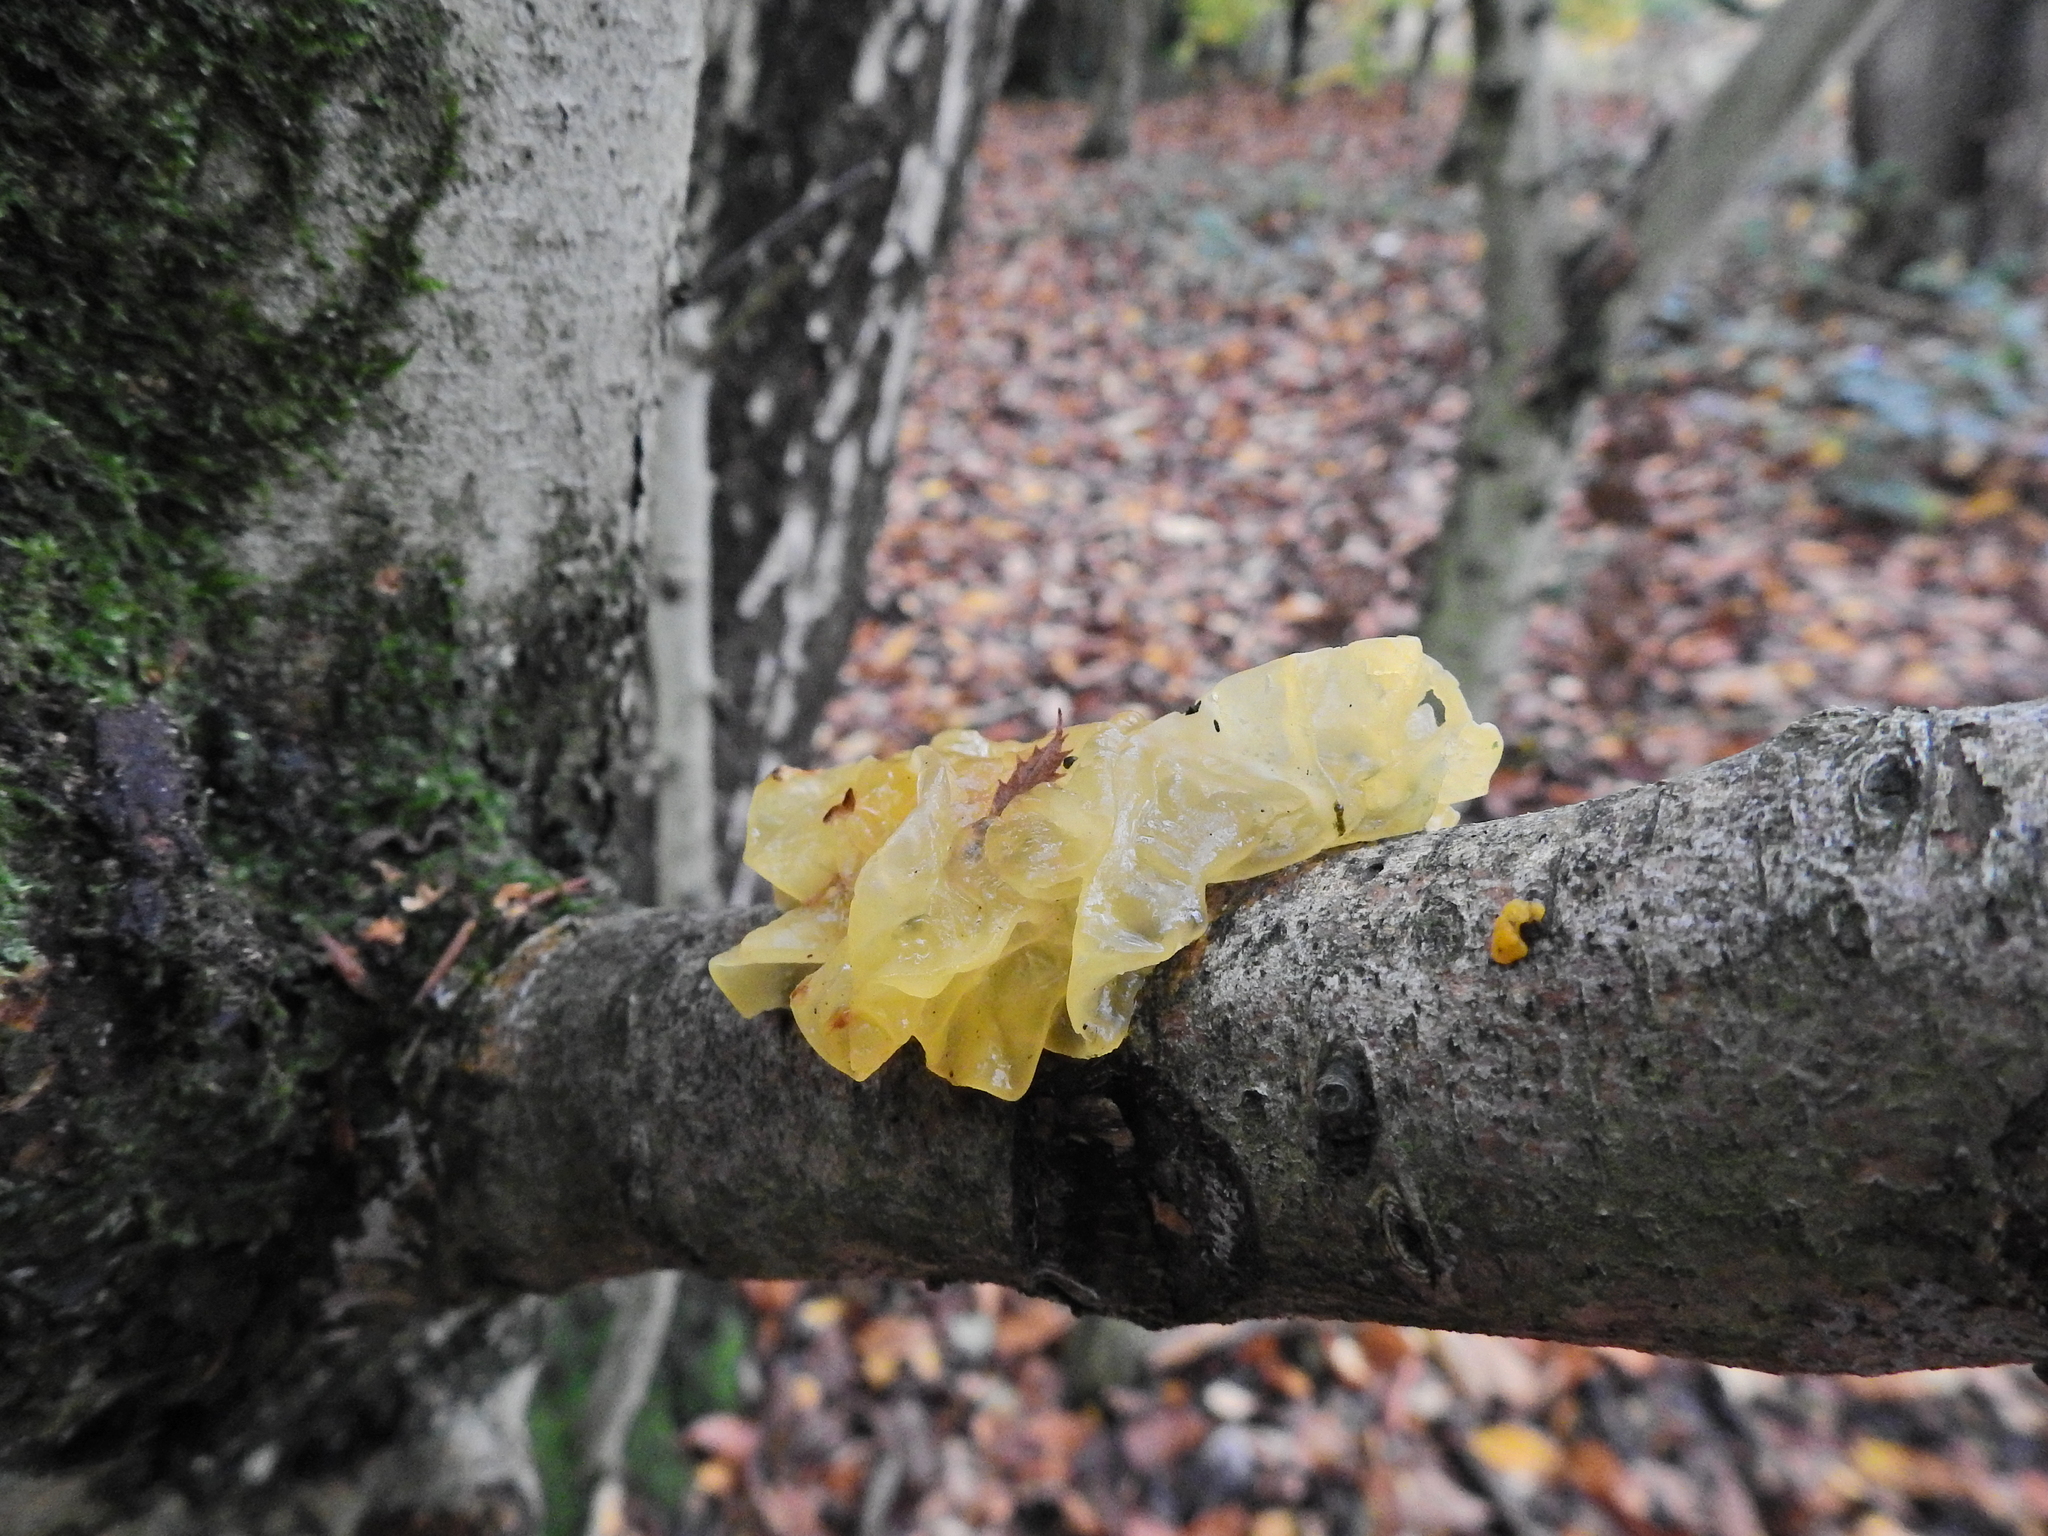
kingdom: Fungi
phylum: Basidiomycota
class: Tremellomycetes
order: Tremellales
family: Tremellaceae
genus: Tremella
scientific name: Tremella mesenterica
